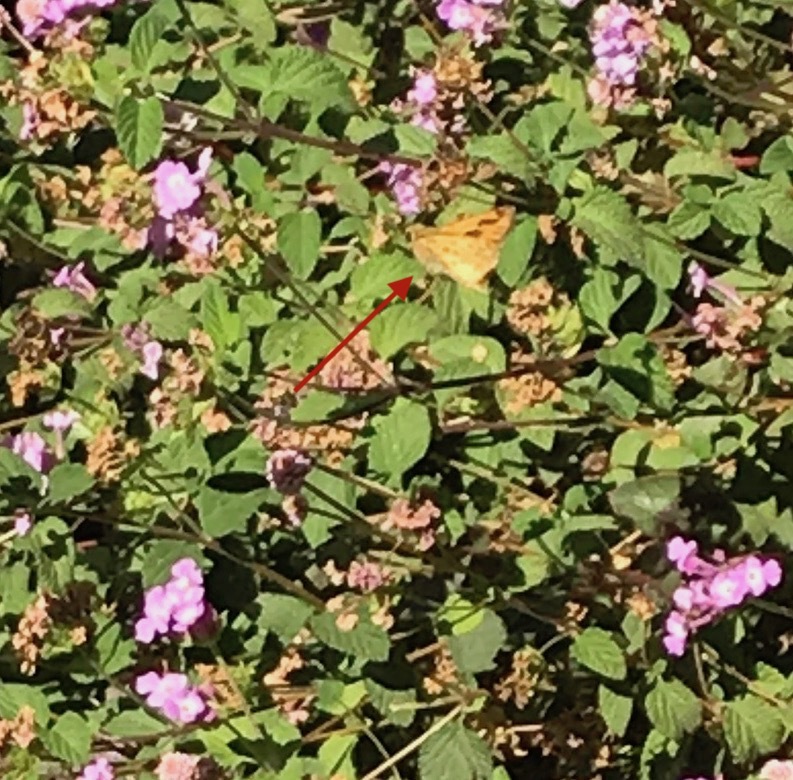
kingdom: Animalia
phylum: Arthropoda
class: Insecta
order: Lepidoptera
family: Hesperiidae
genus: Hylephila
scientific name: Hylephila phyleus
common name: Fiery skipper
